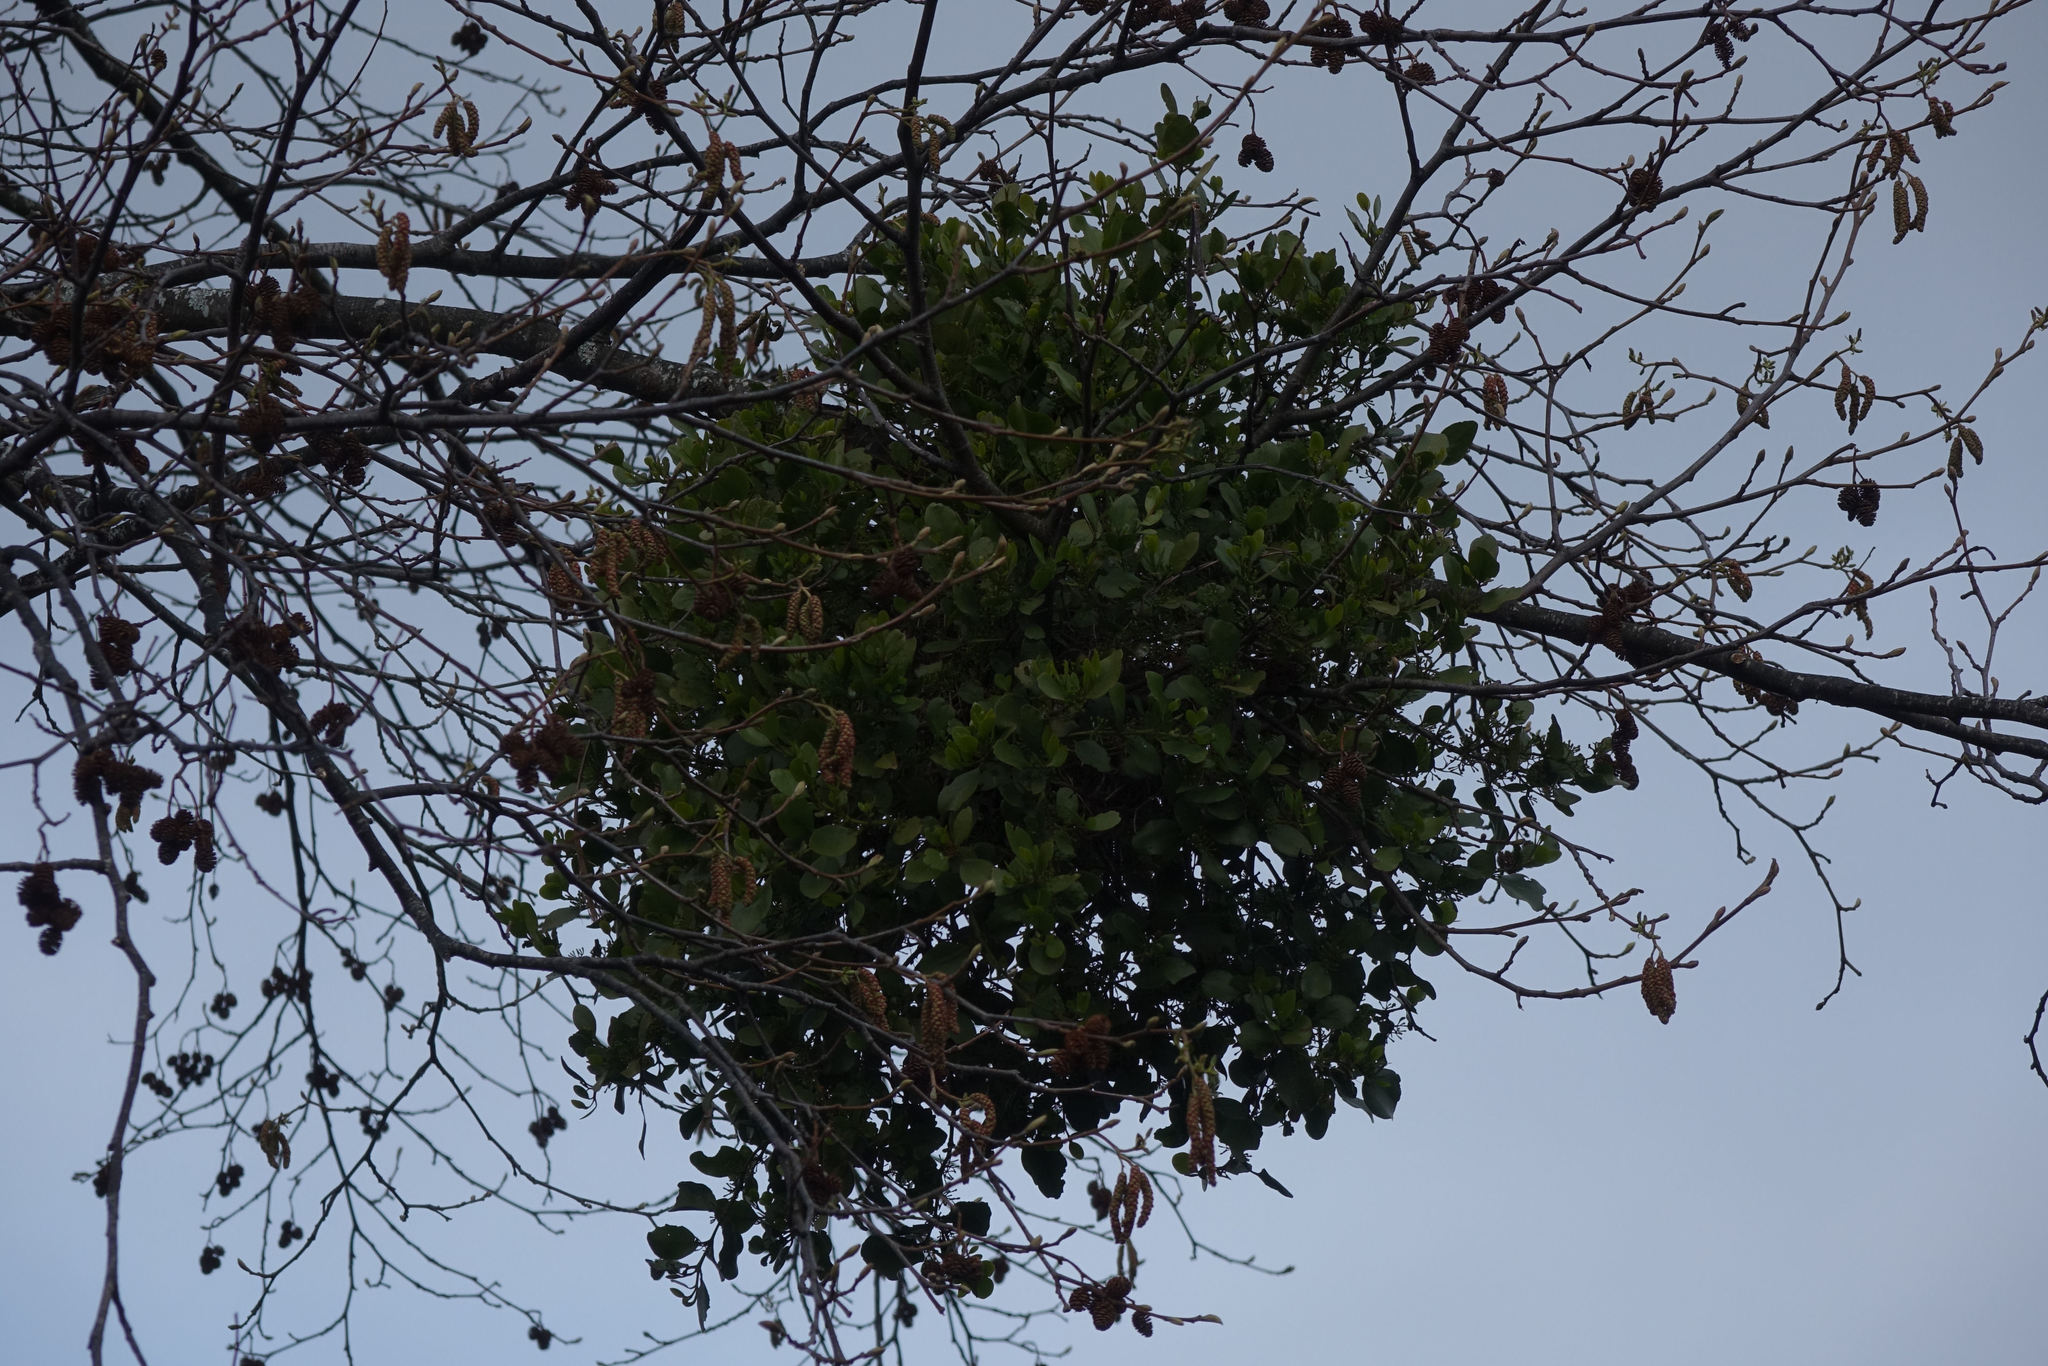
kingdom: Plantae
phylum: Tracheophyta
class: Magnoliopsida
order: Santalales
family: Loranthaceae
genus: Ileostylus
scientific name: Ileostylus micranthus
